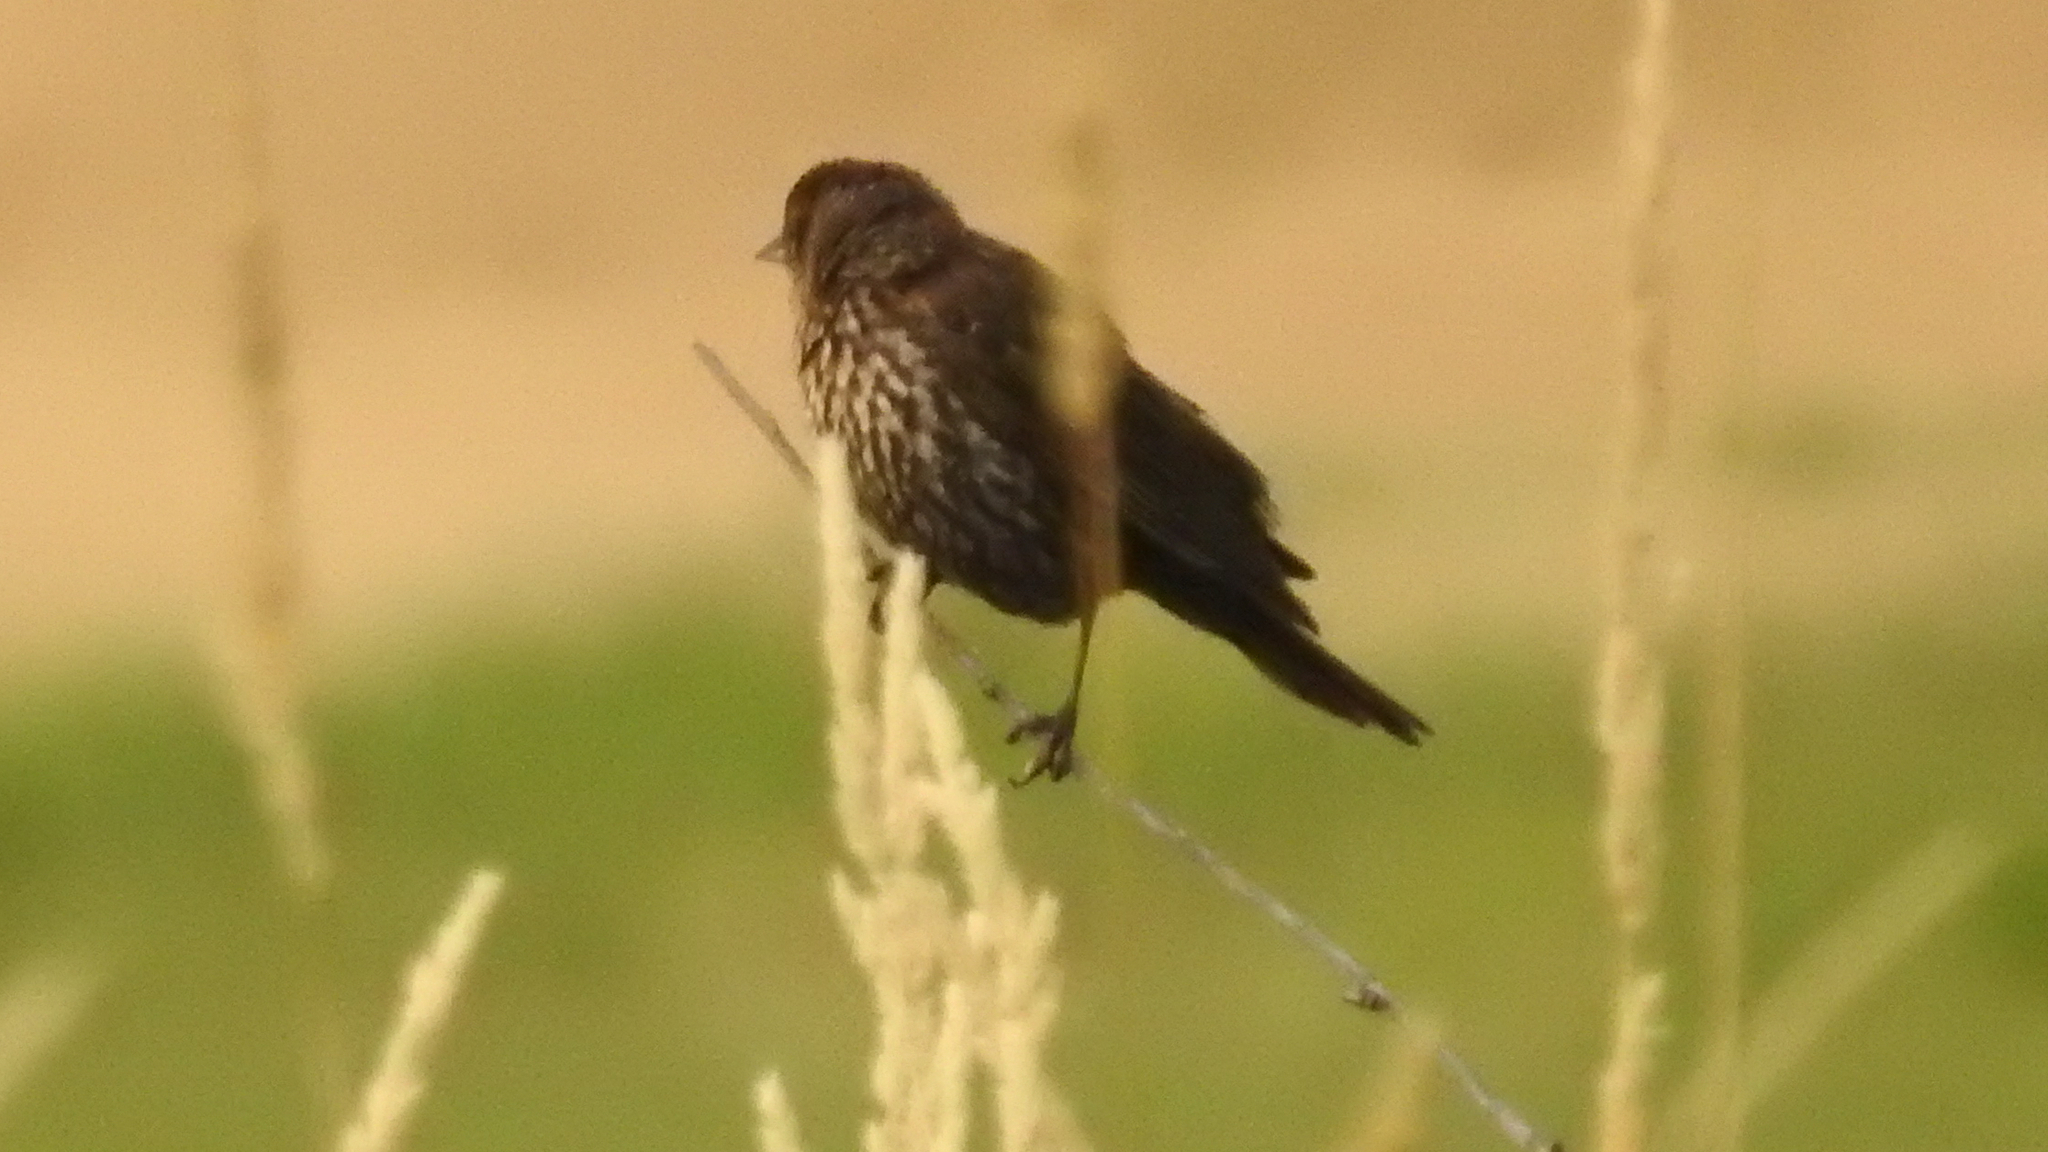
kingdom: Animalia
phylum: Chordata
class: Aves
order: Passeriformes
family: Icteridae
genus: Agelaius
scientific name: Agelaius phoeniceus
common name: Red-winged blackbird
